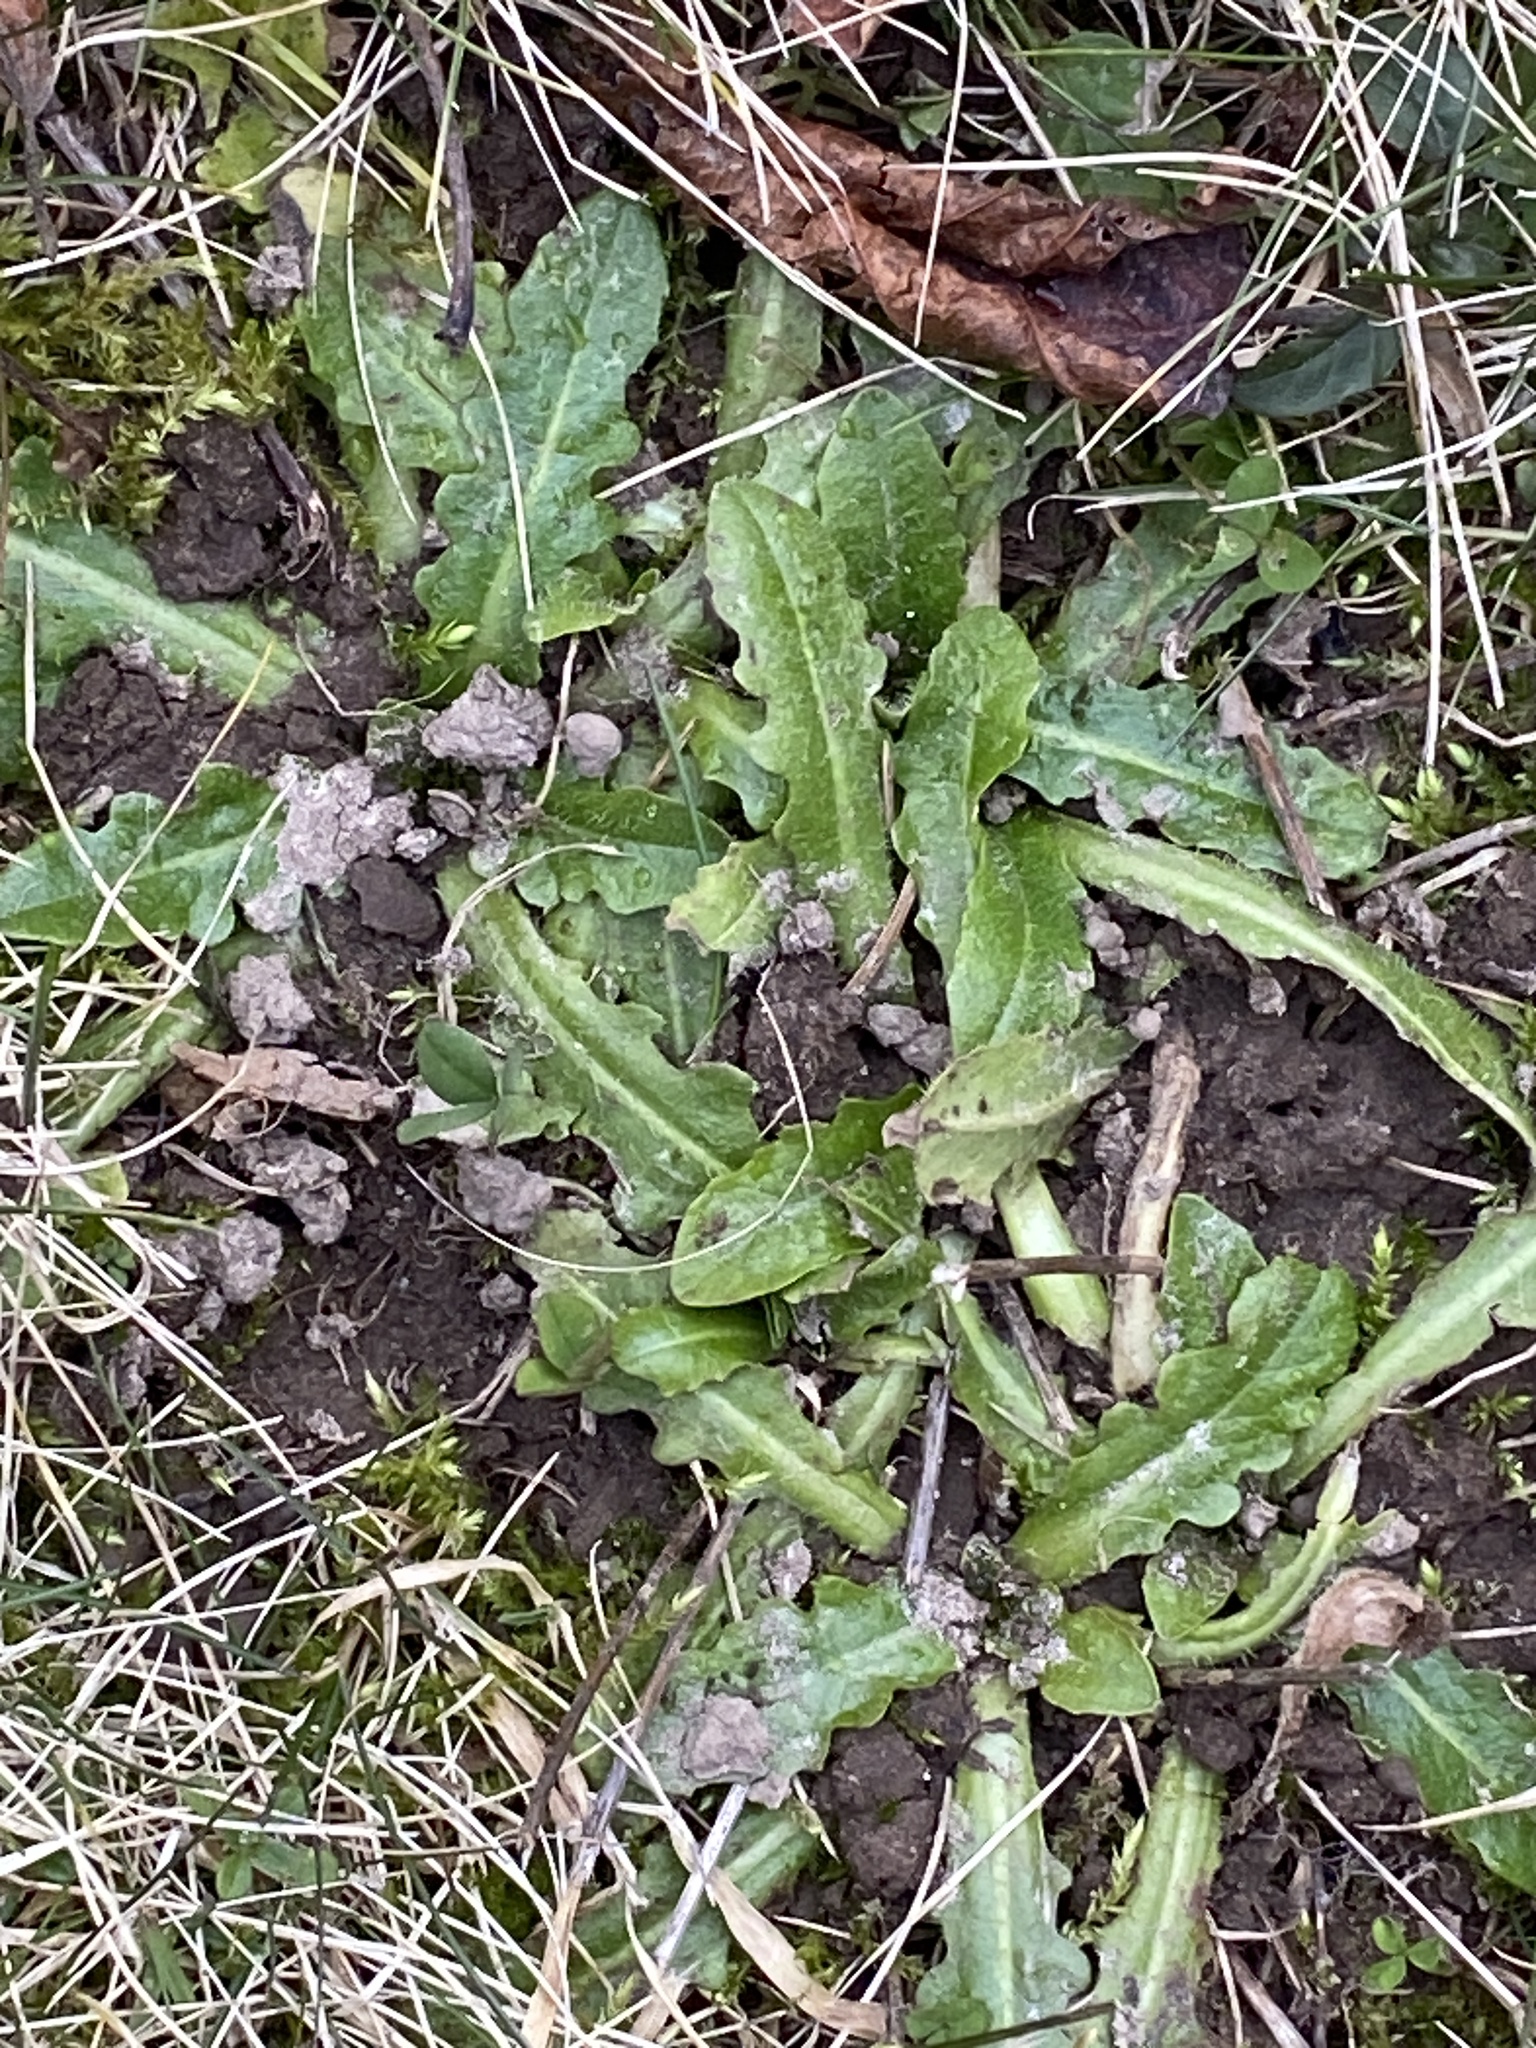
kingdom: Plantae
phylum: Tracheophyta
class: Magnoliopsida
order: Asterales
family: Asteraceae
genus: Hypochaeris
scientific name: Hypochaeris radicata
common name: Flatweed
